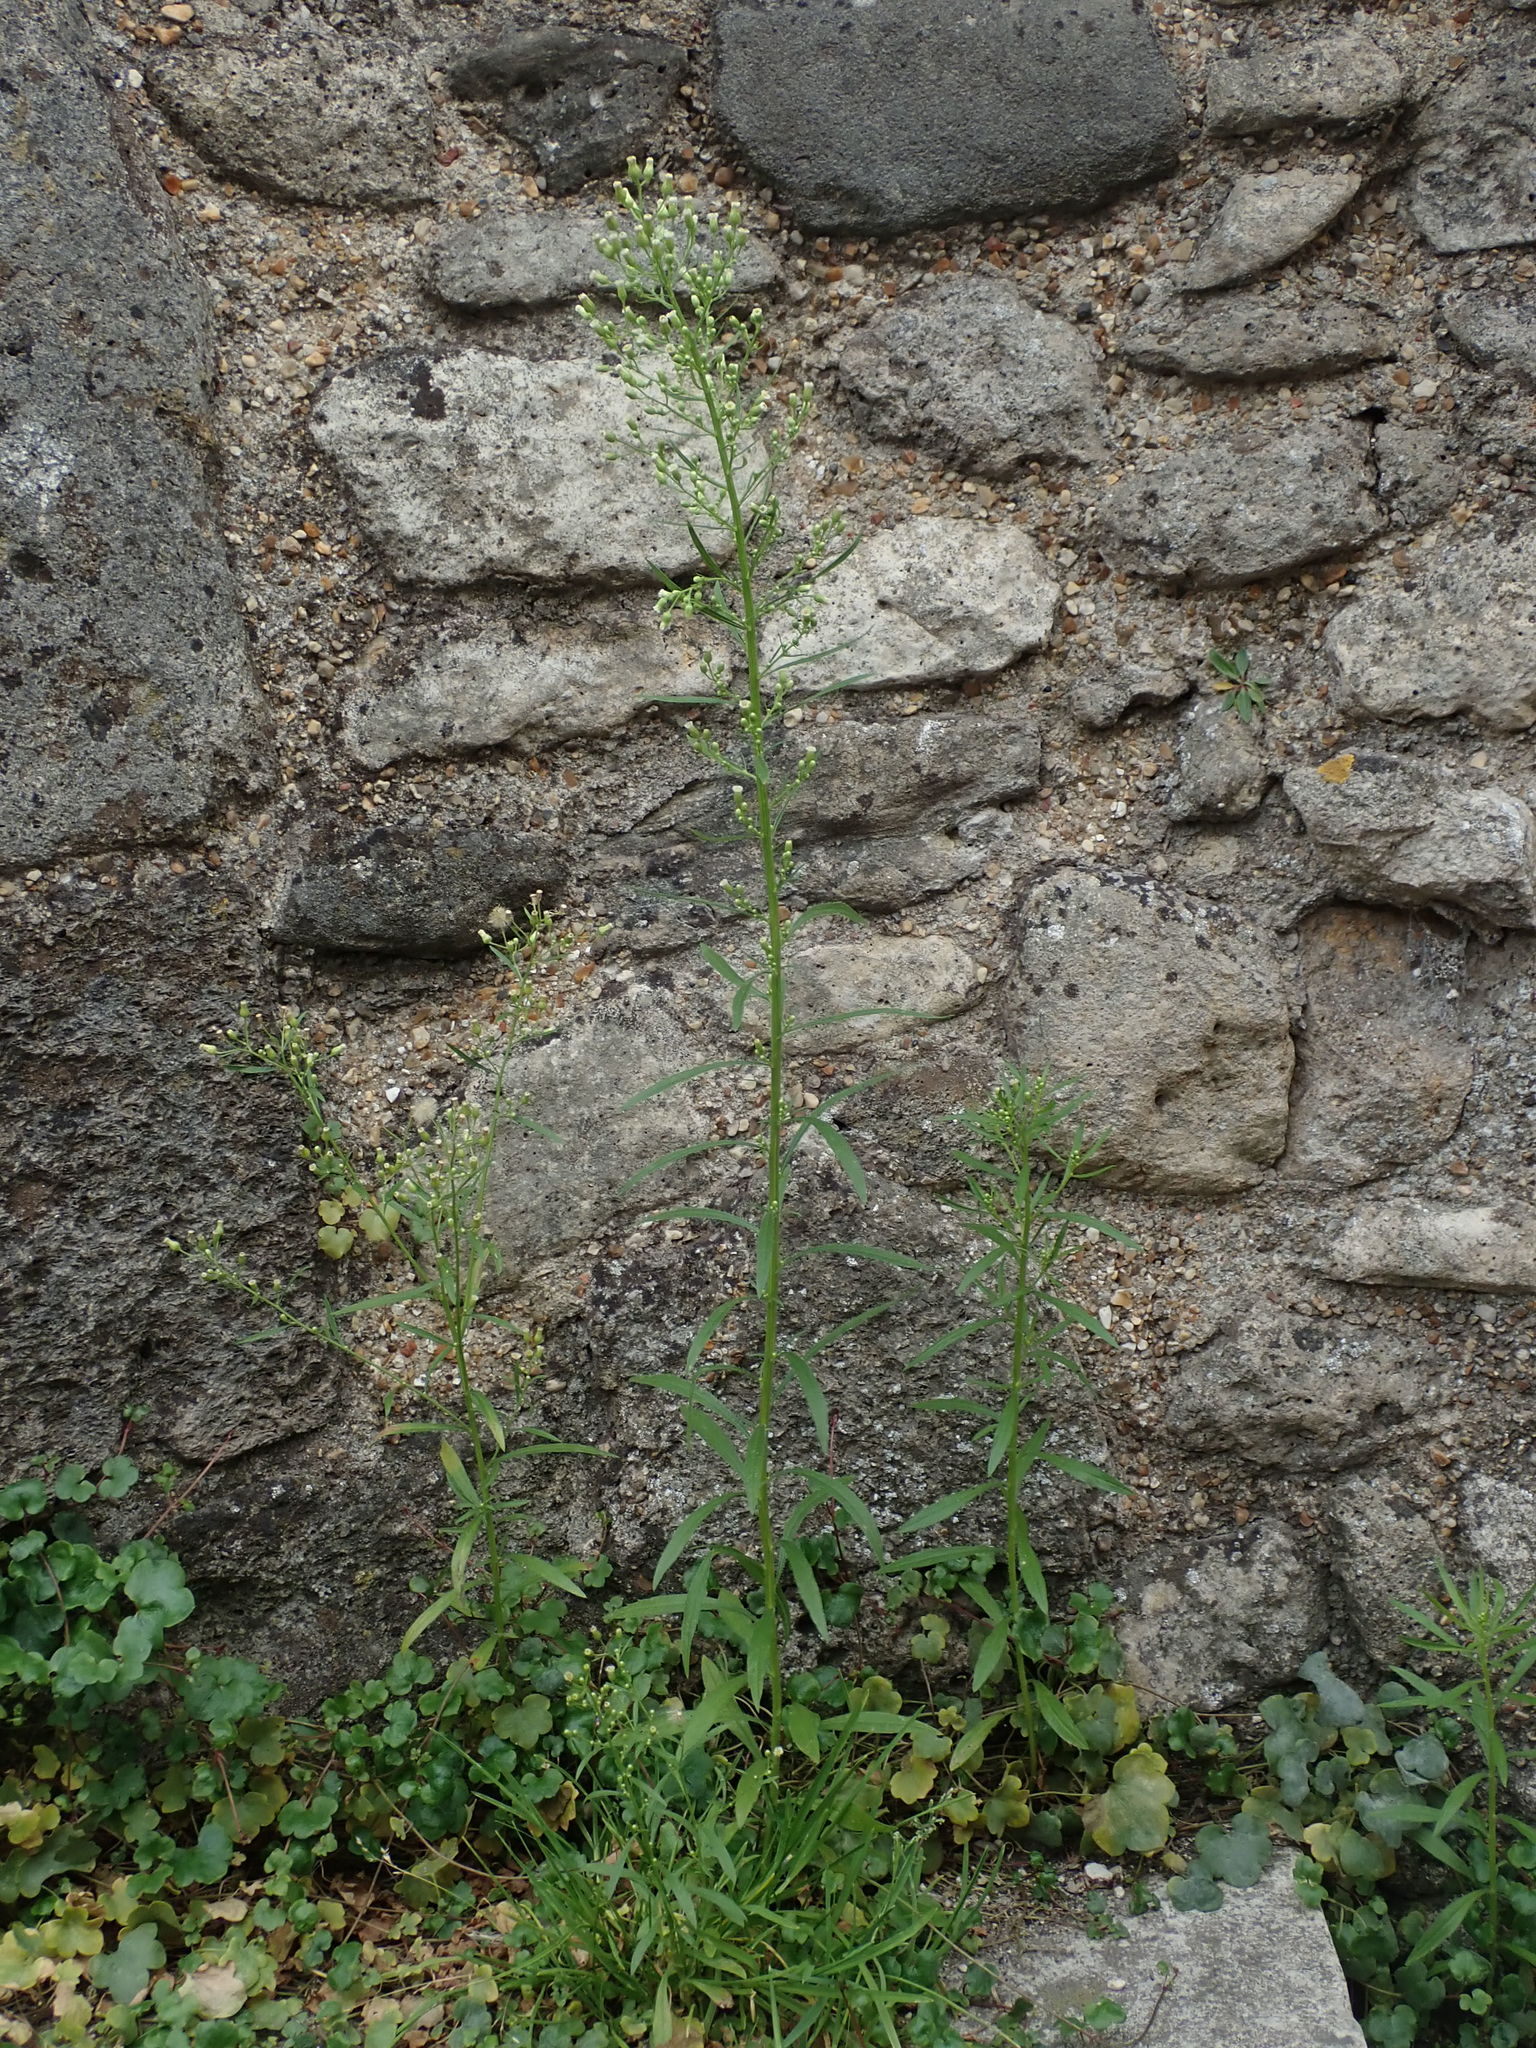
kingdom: Plantae
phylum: Tracheophyta
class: Magnoliopsida
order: Asterales
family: Asteraceae
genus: Erigeron
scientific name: Erigeron canadensis
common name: Canadian fleabane
